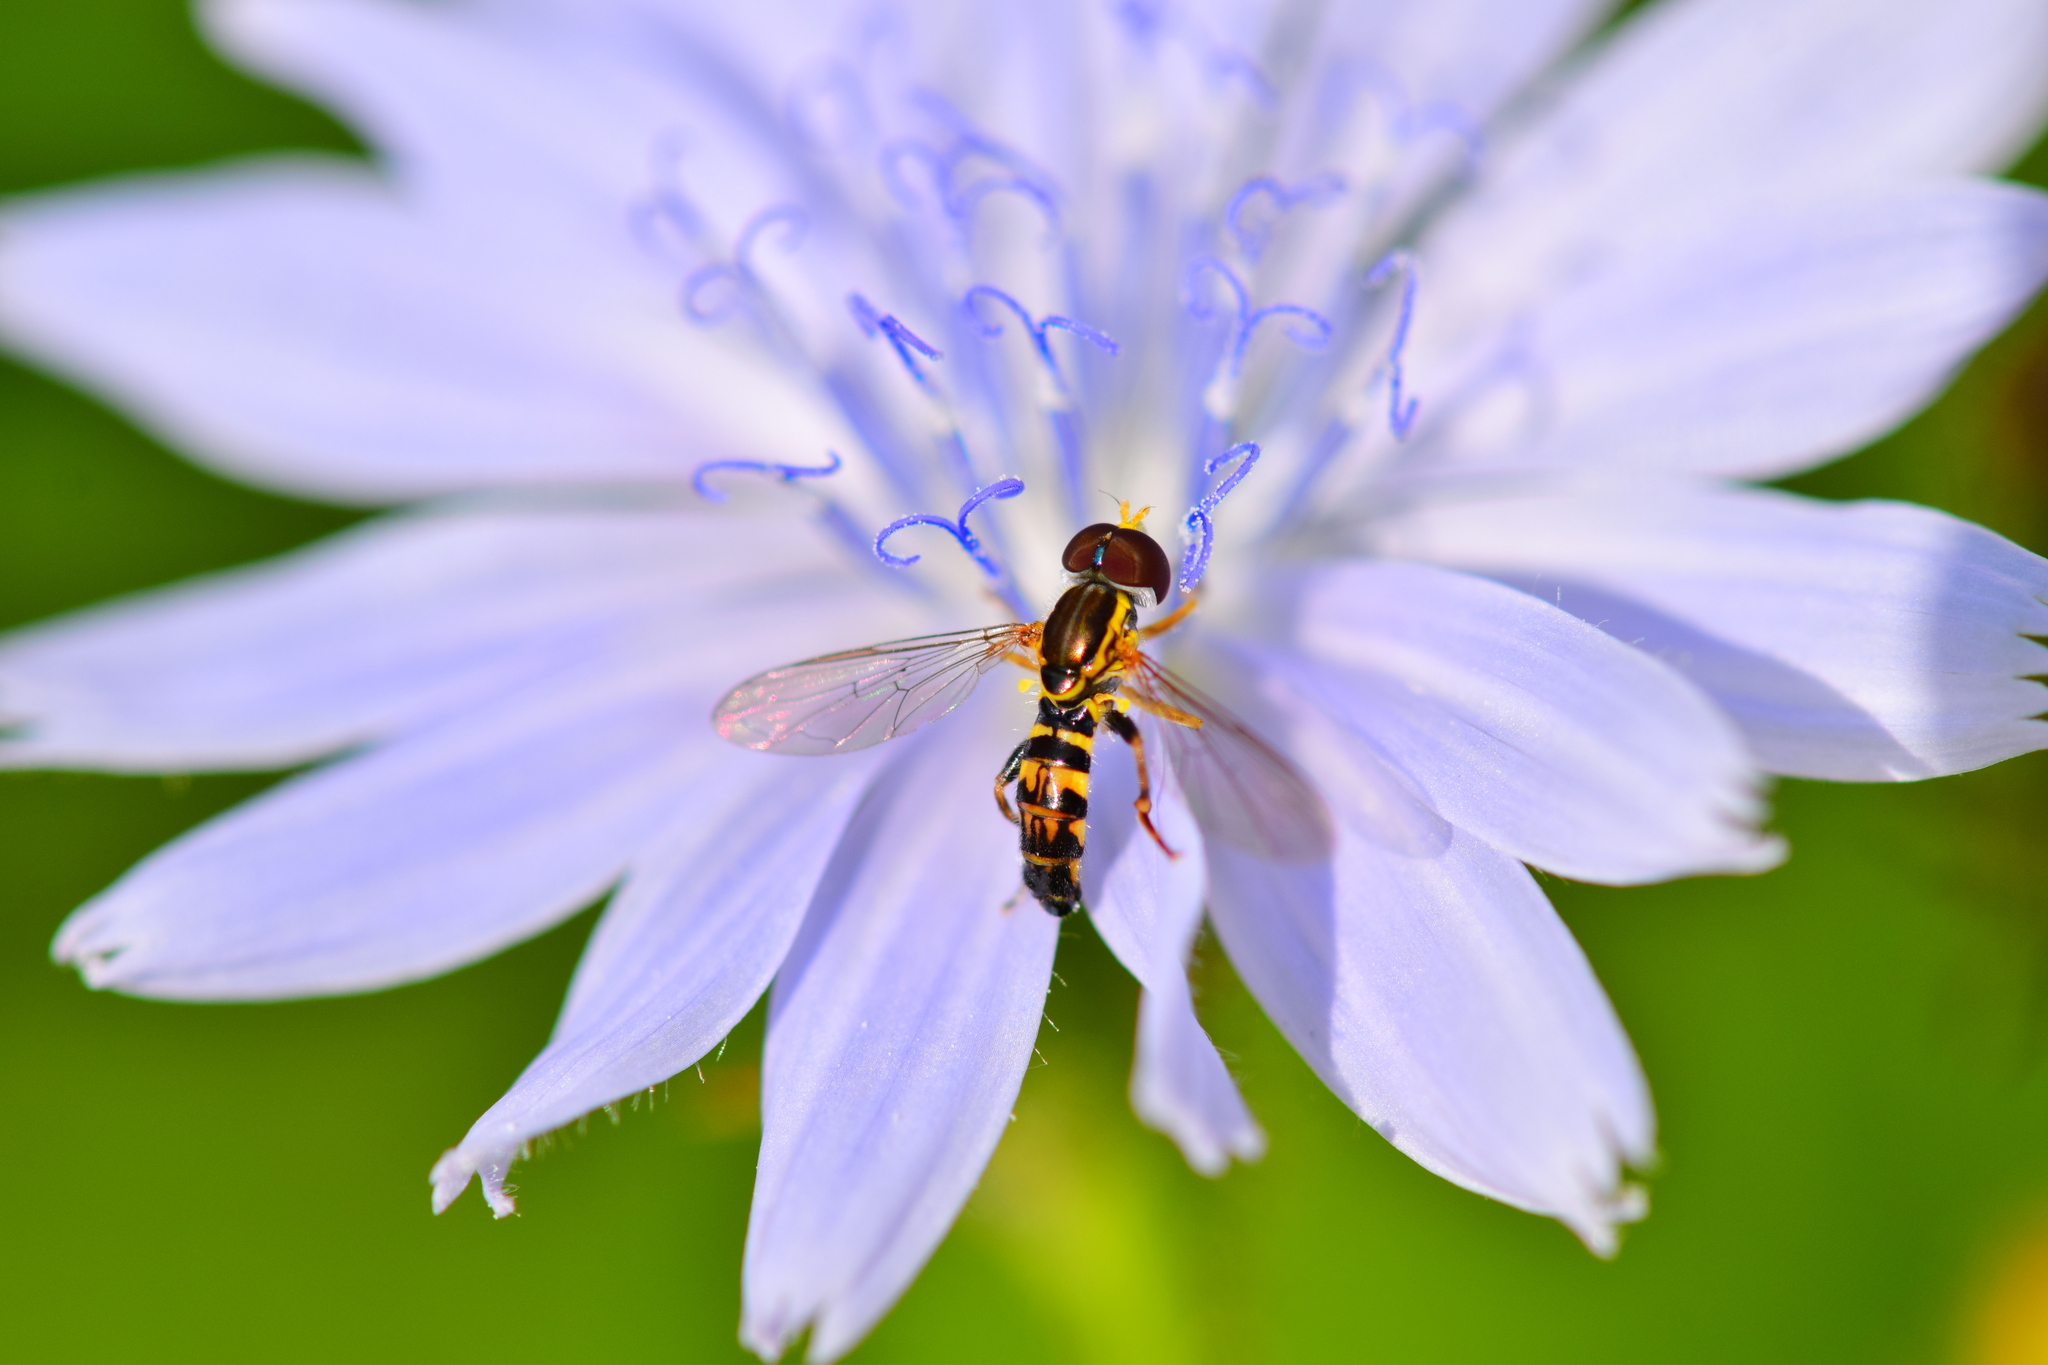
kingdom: Animalia
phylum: Arthropoda
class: Insecta
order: Diptera
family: Syrphidae
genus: Toxomerus
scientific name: Toxomerus geminatus
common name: Eastern calligrapher
